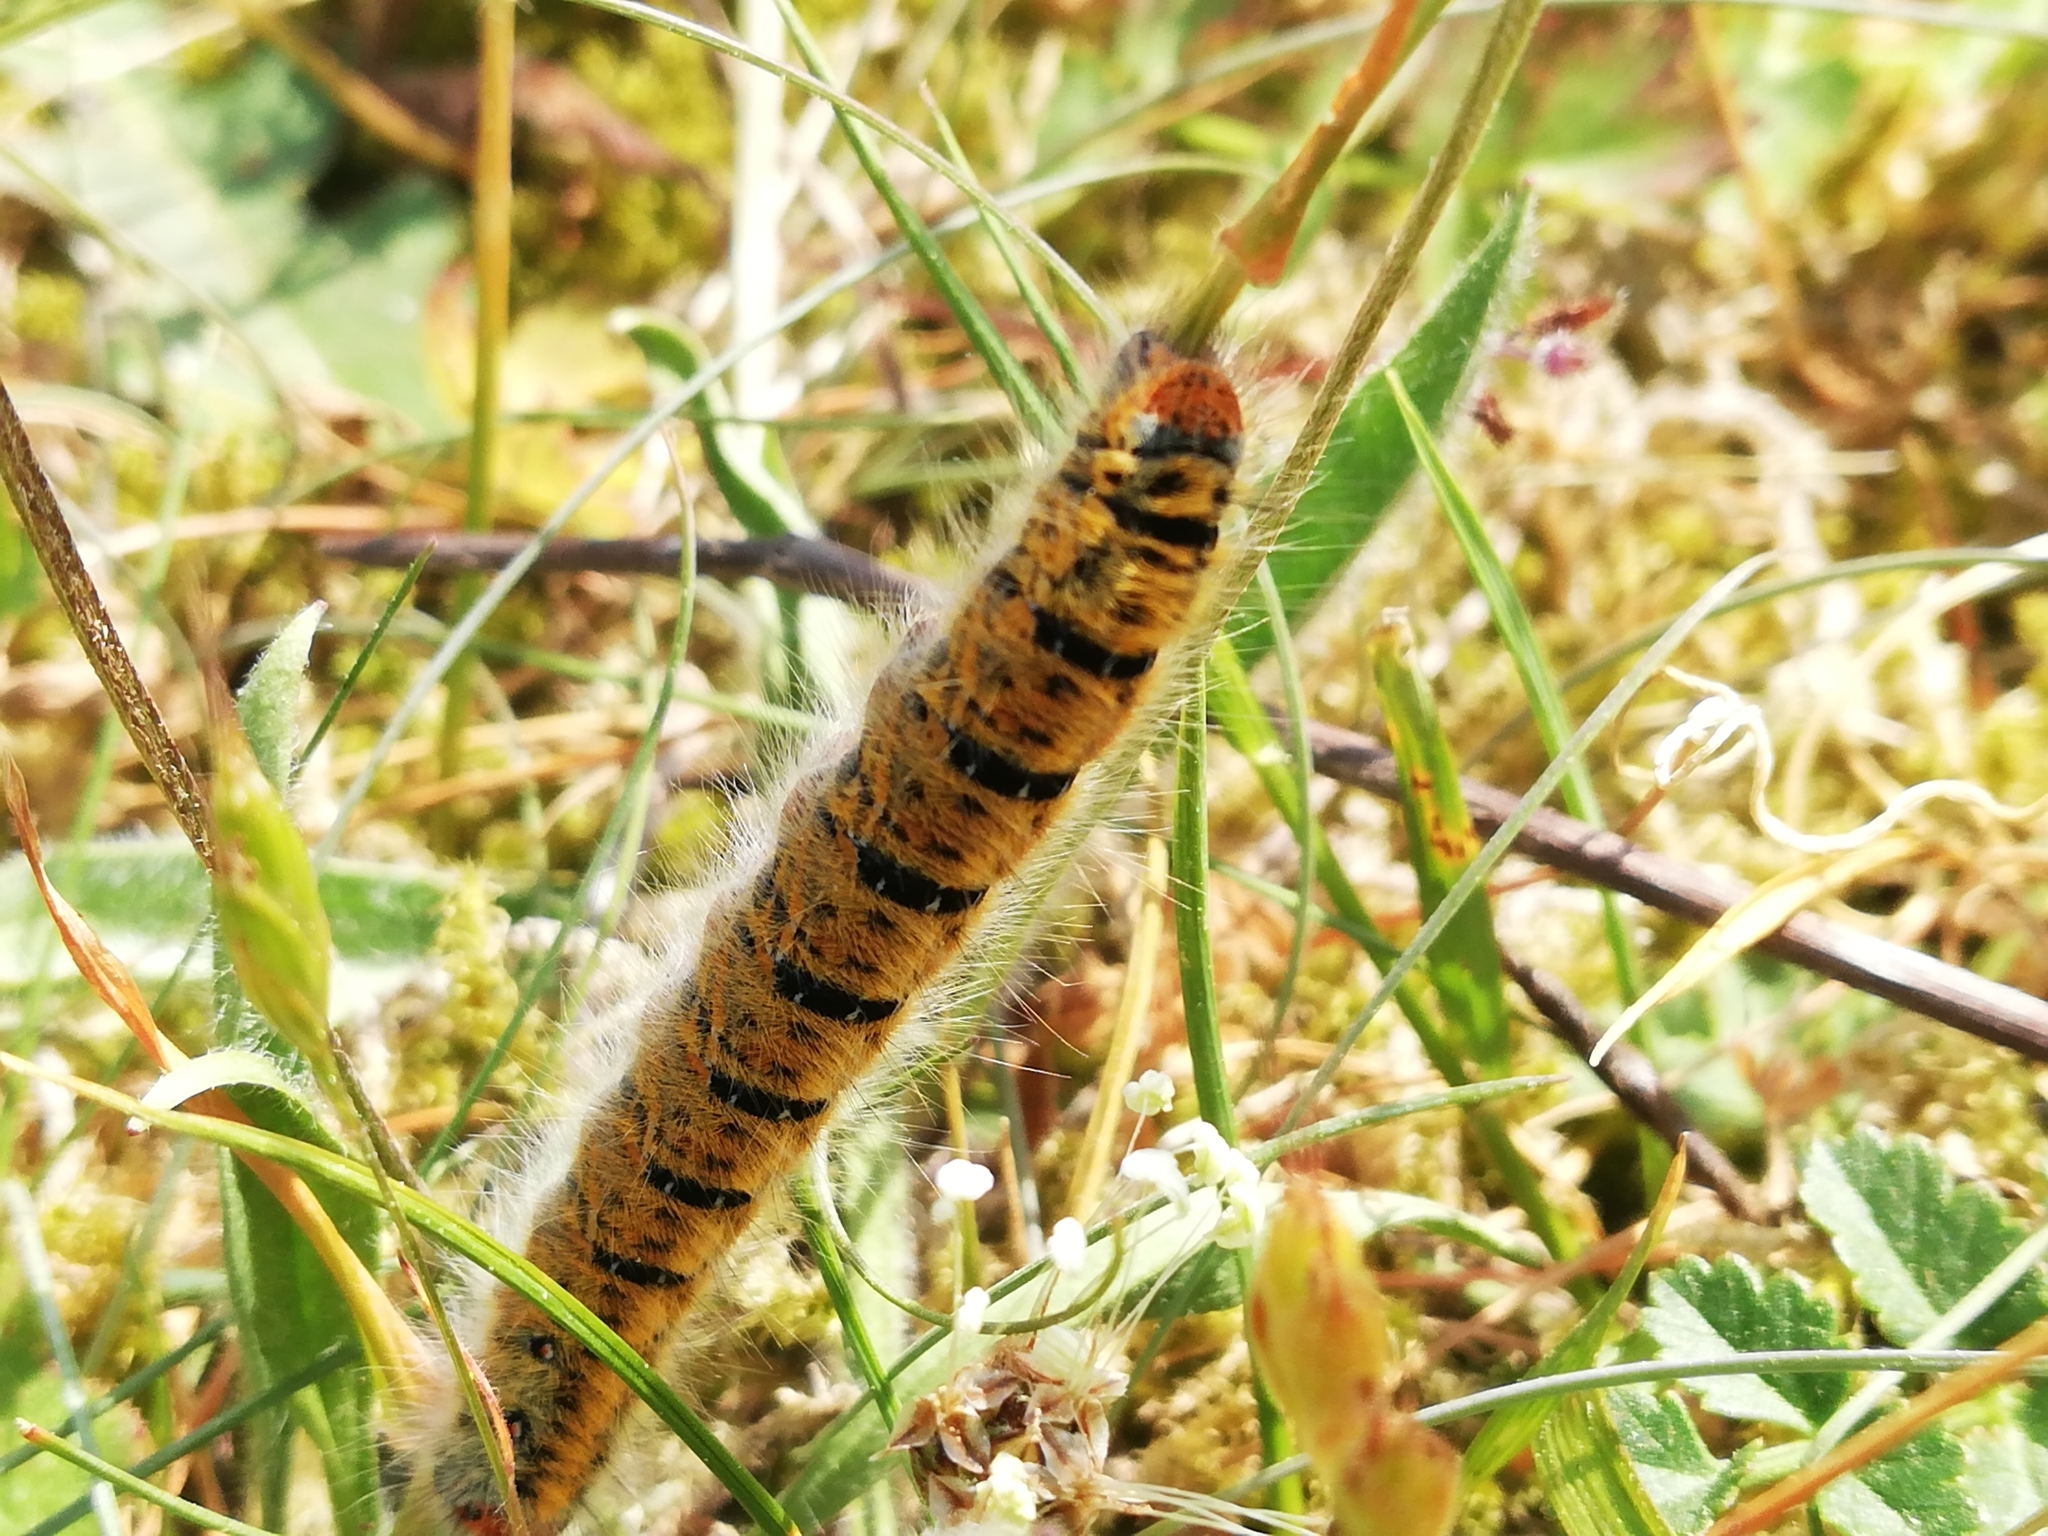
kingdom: Animalia
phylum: Arthropoda
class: Insecta
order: Lepidoptera
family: Lasiocampidae
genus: Lasiocampa
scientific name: Lasiocampa trifolii
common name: Grass eggar
